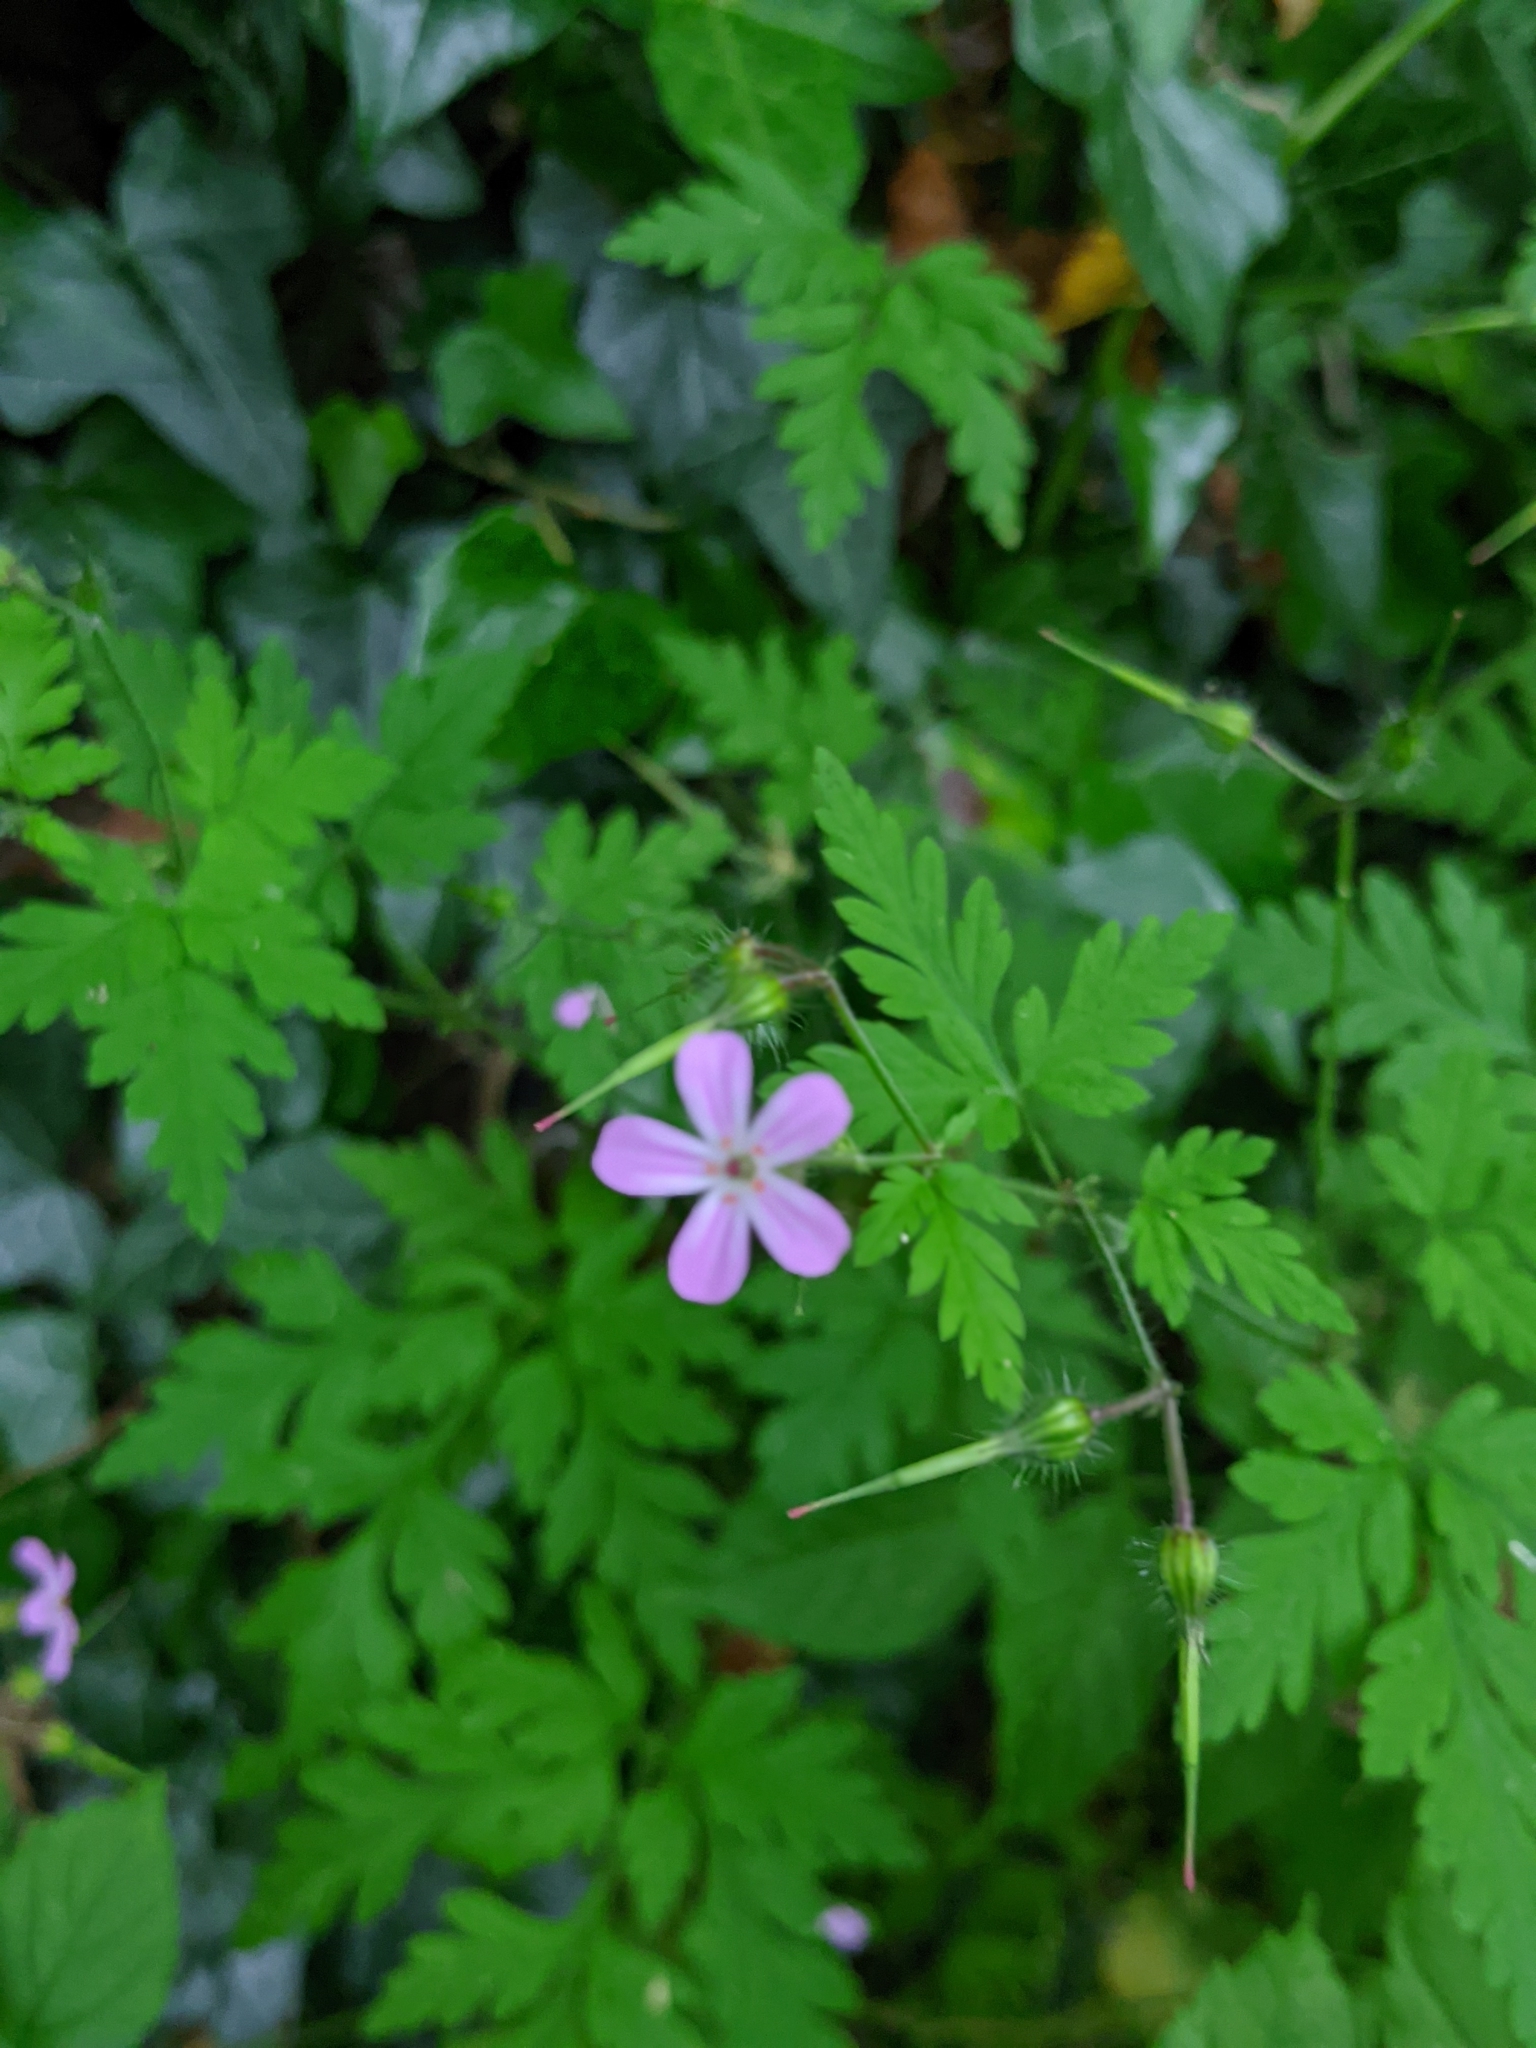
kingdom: Plantae
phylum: Tracheophyta
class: Magnoliopsida
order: Geraniales
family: Geraniaceae
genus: Geranium
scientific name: Geranium robertianum
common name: Herb-robert
